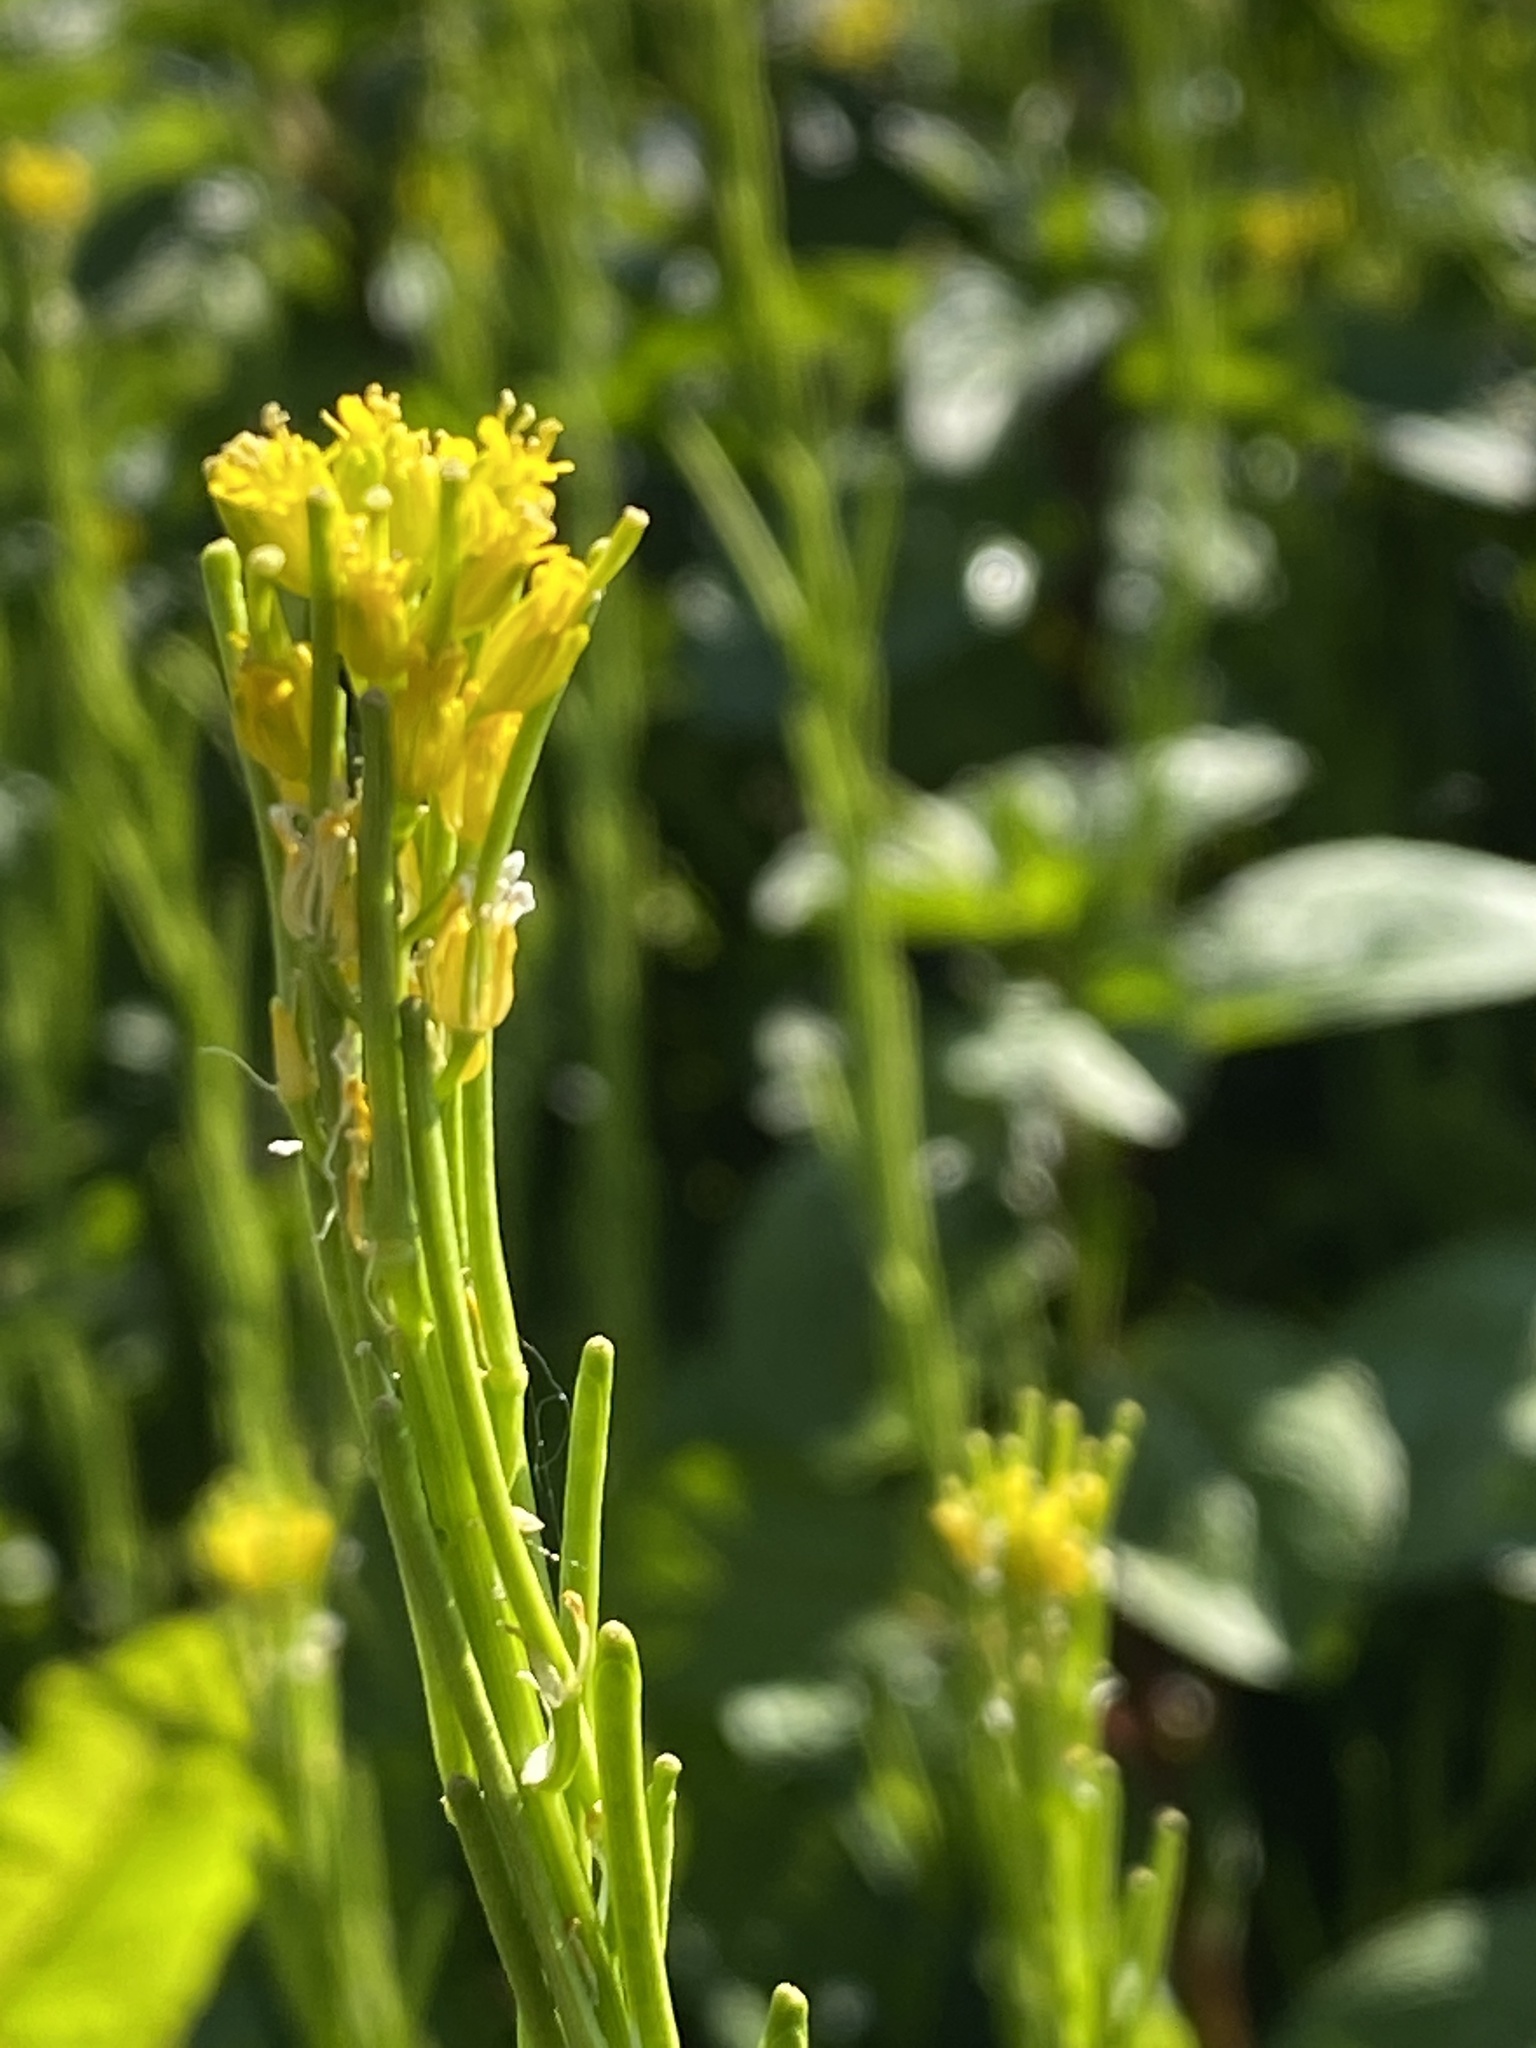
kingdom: Plantae
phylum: Tracheophyta
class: Magnoliopsida
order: Brassicales
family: Brassicaceae
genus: Barbarea
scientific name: Barbarea stricta
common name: Small-flowered winter-cress
